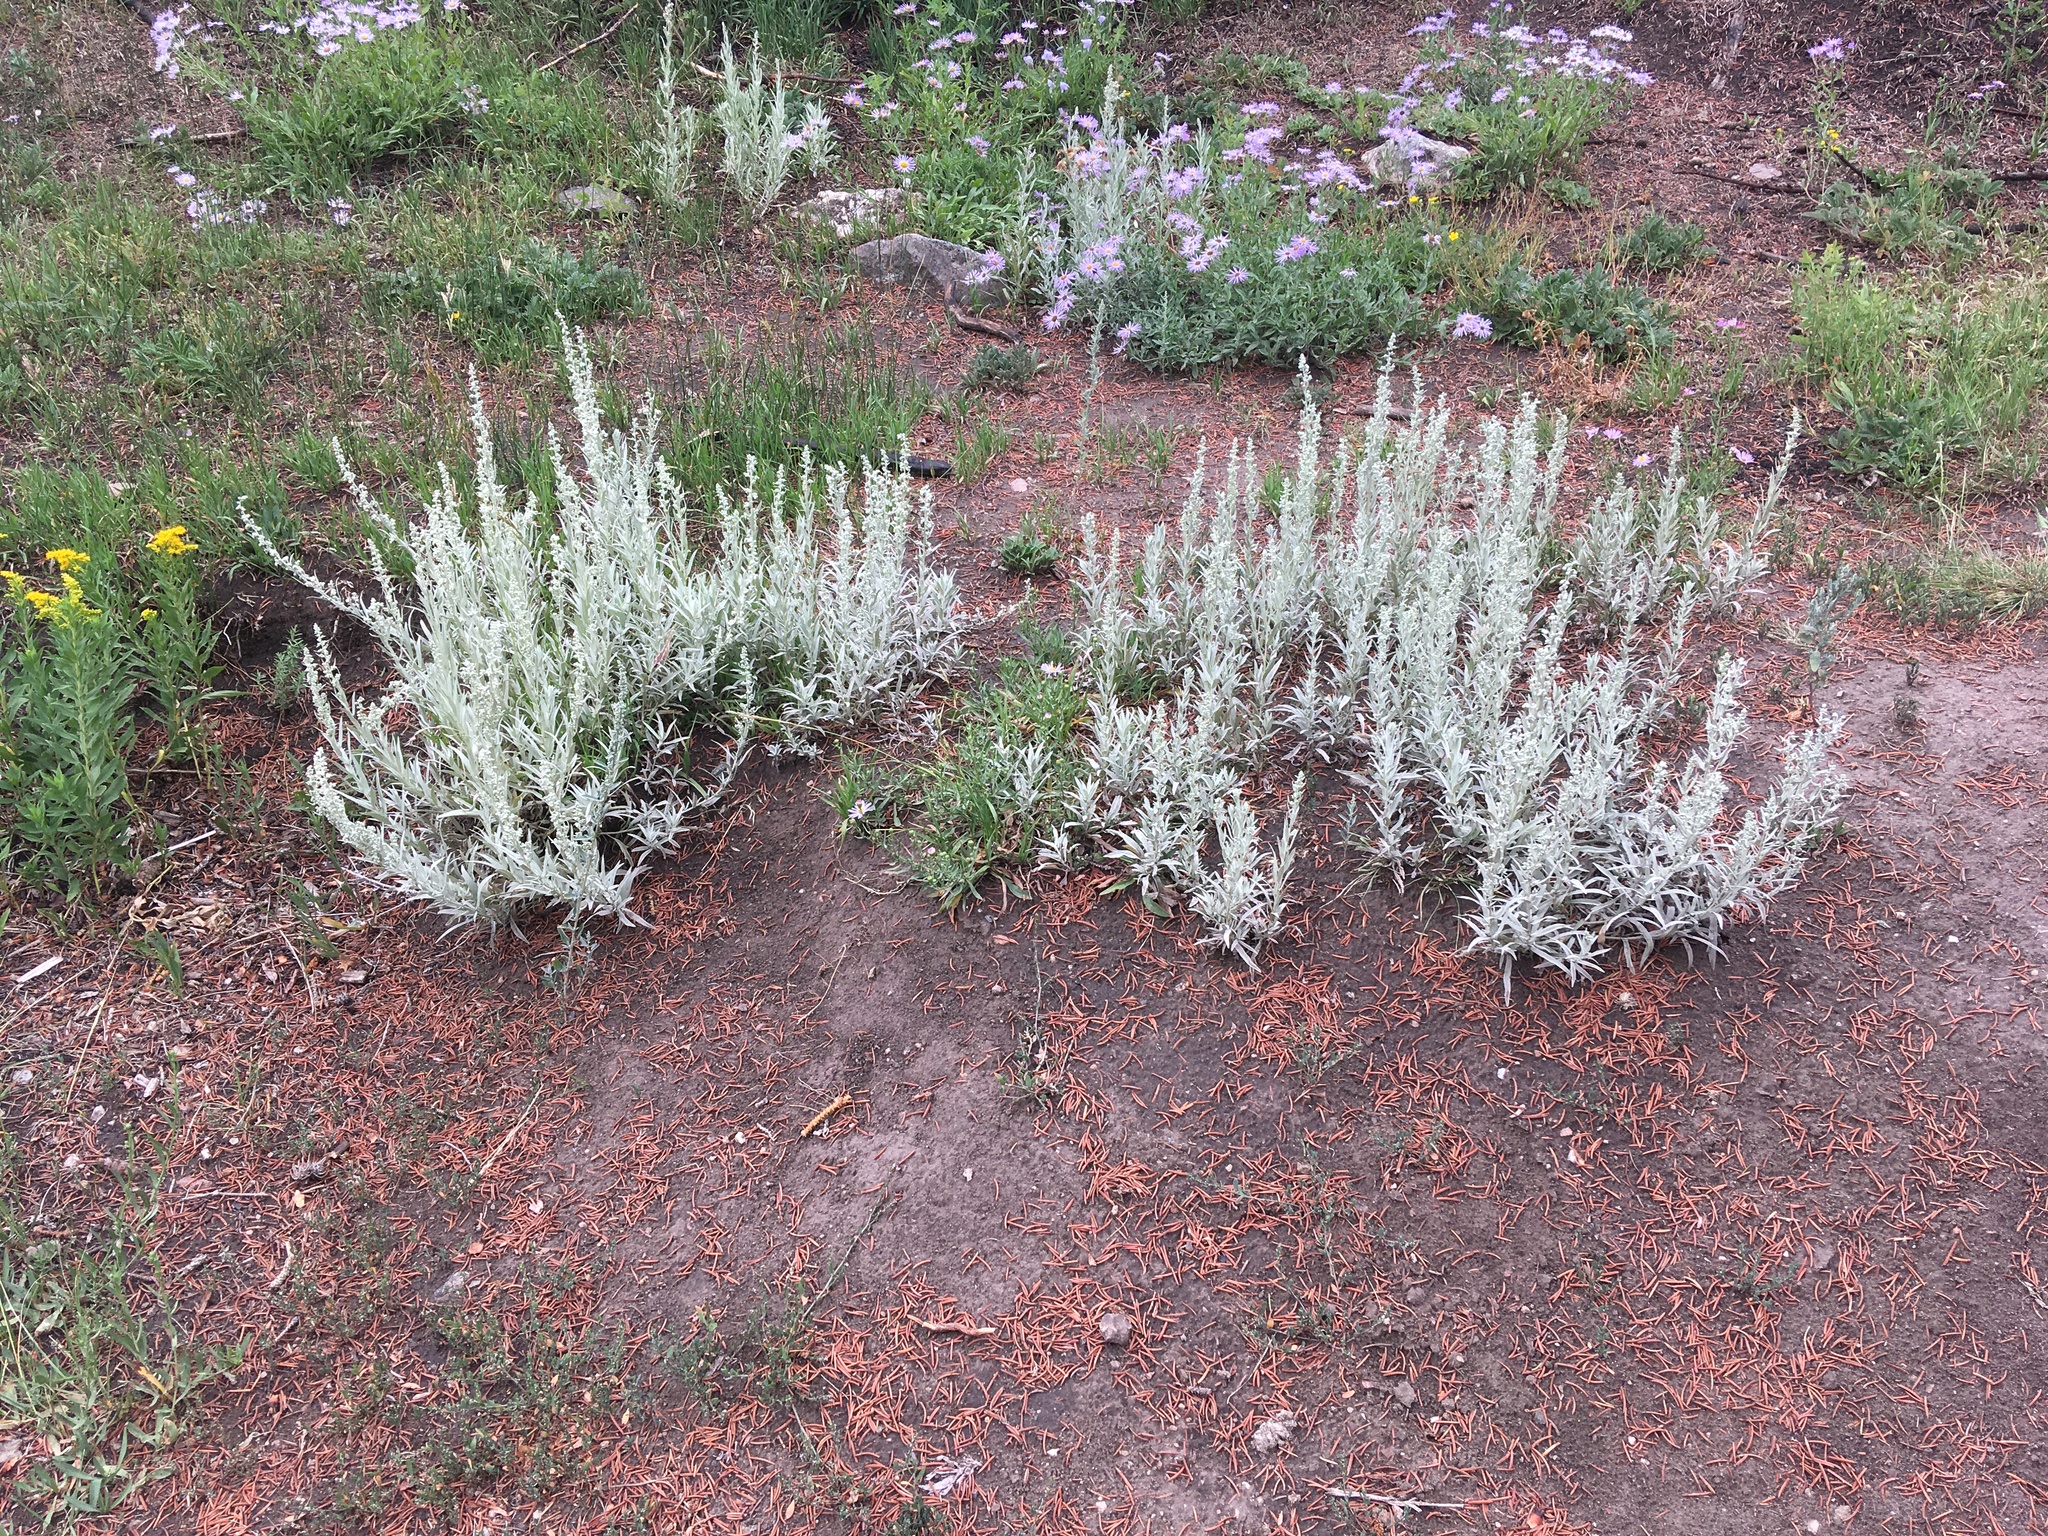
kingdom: Plantae
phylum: Tracheophyta
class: Magnoliopsida
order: Asterales
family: Asteraceae
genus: Artemisia
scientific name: Artemisia cana
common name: Silver sagebrush
